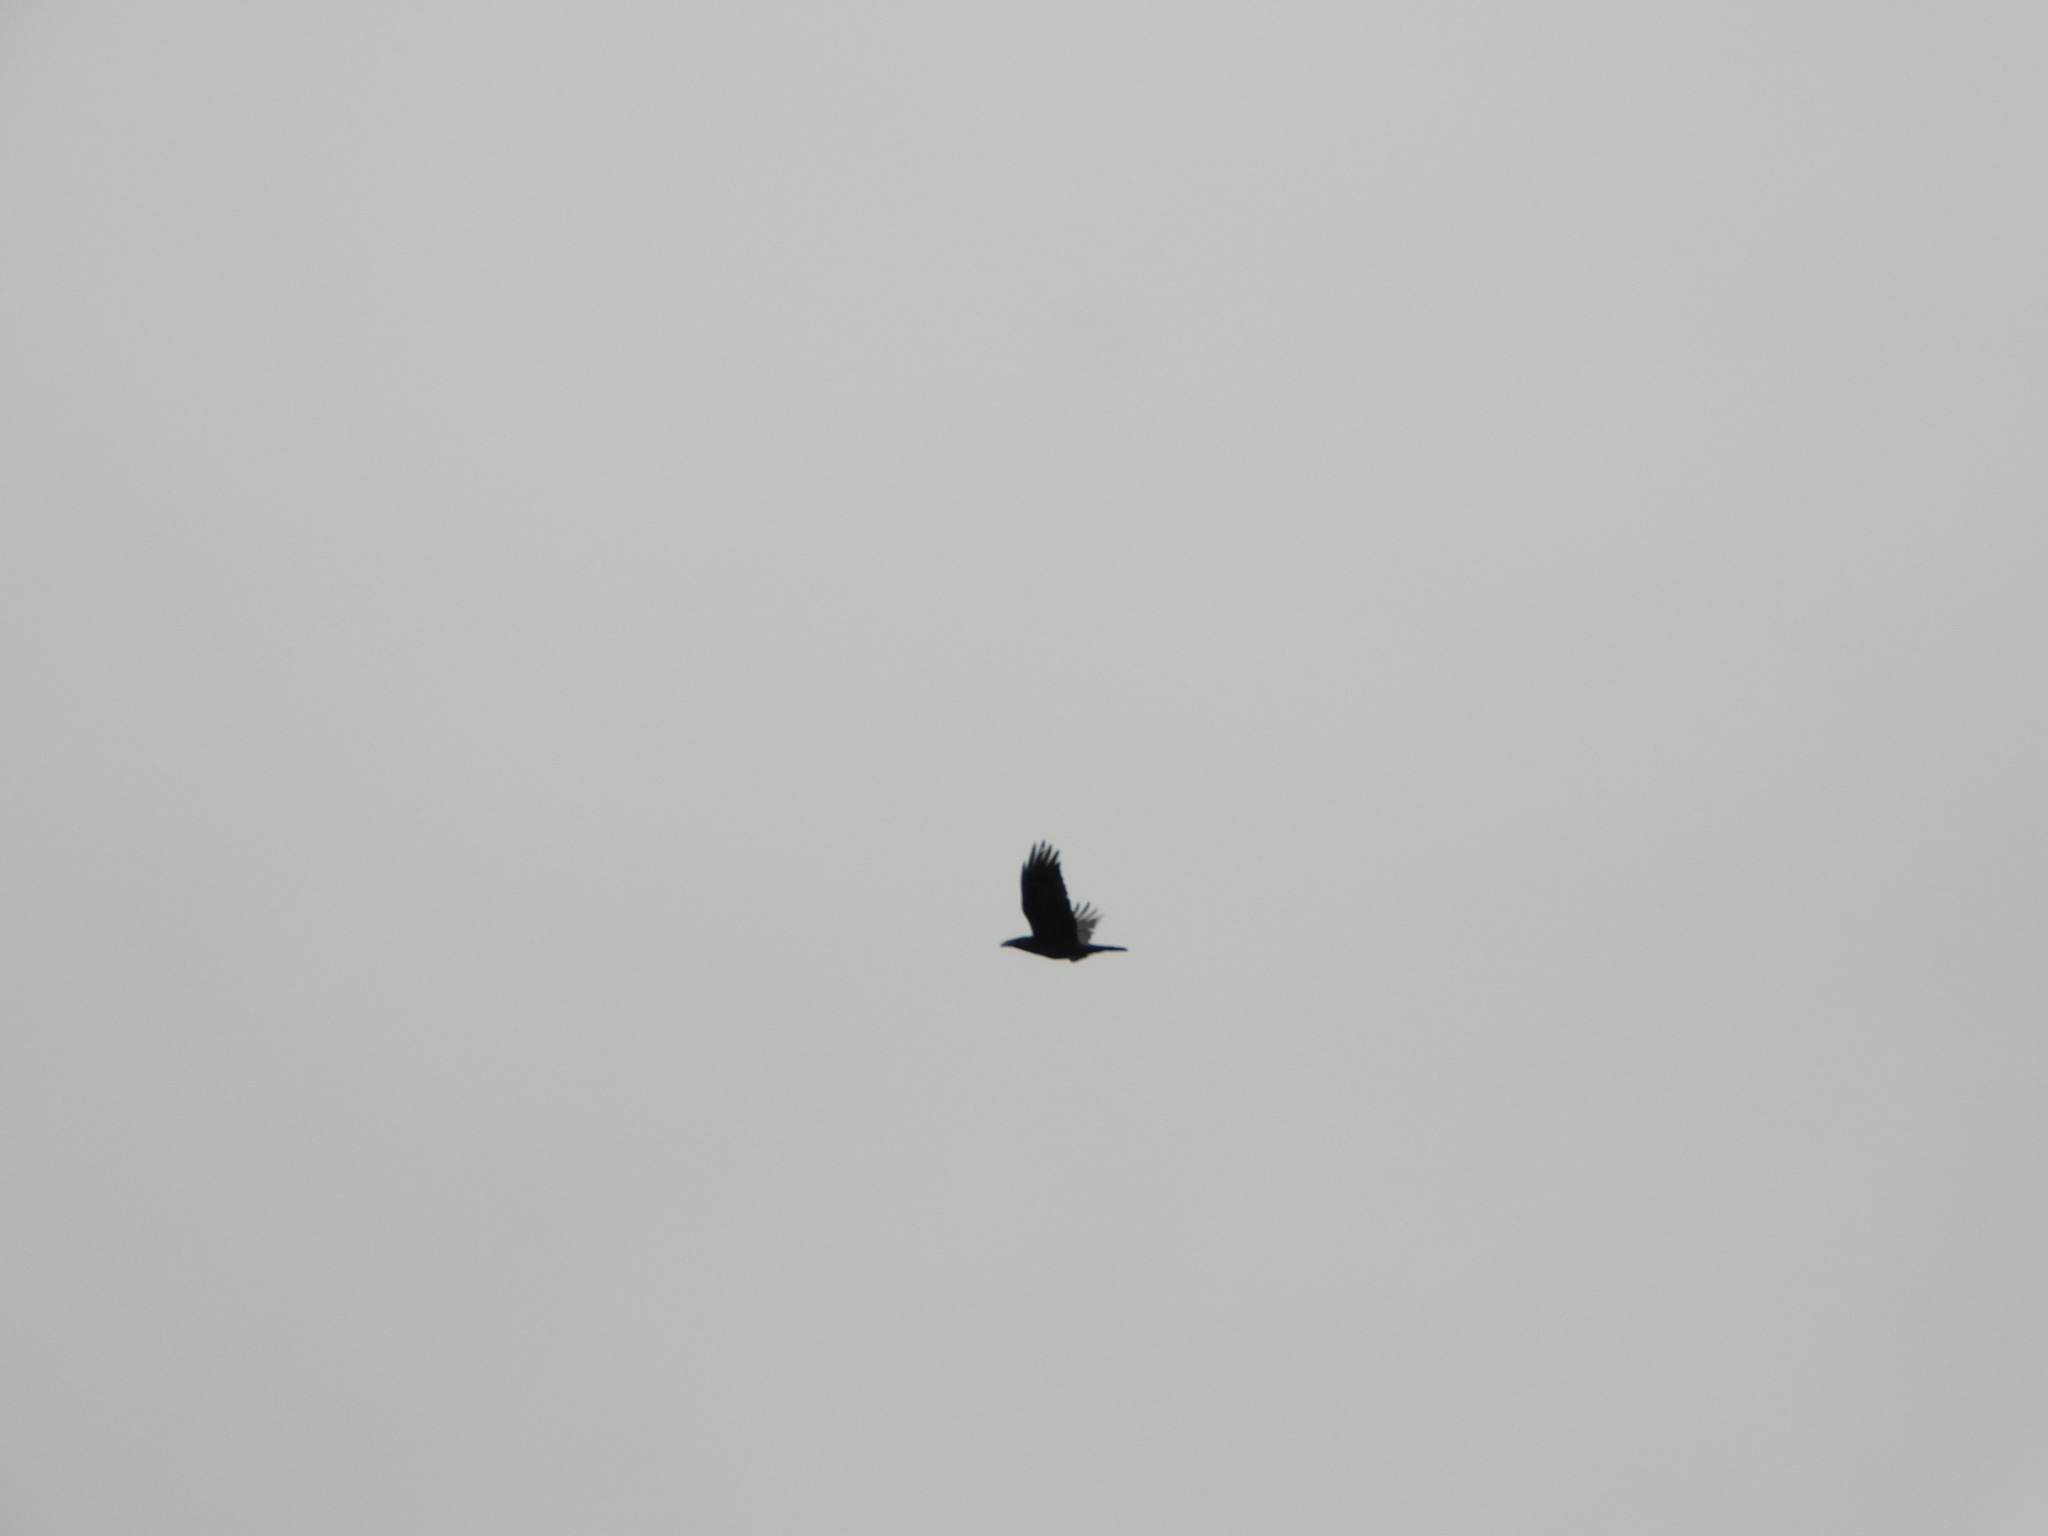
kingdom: Animalia
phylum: Chordata
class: Aves
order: Passeriformes
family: Corvidae
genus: Corvus
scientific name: Corvus corax
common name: Common raven
